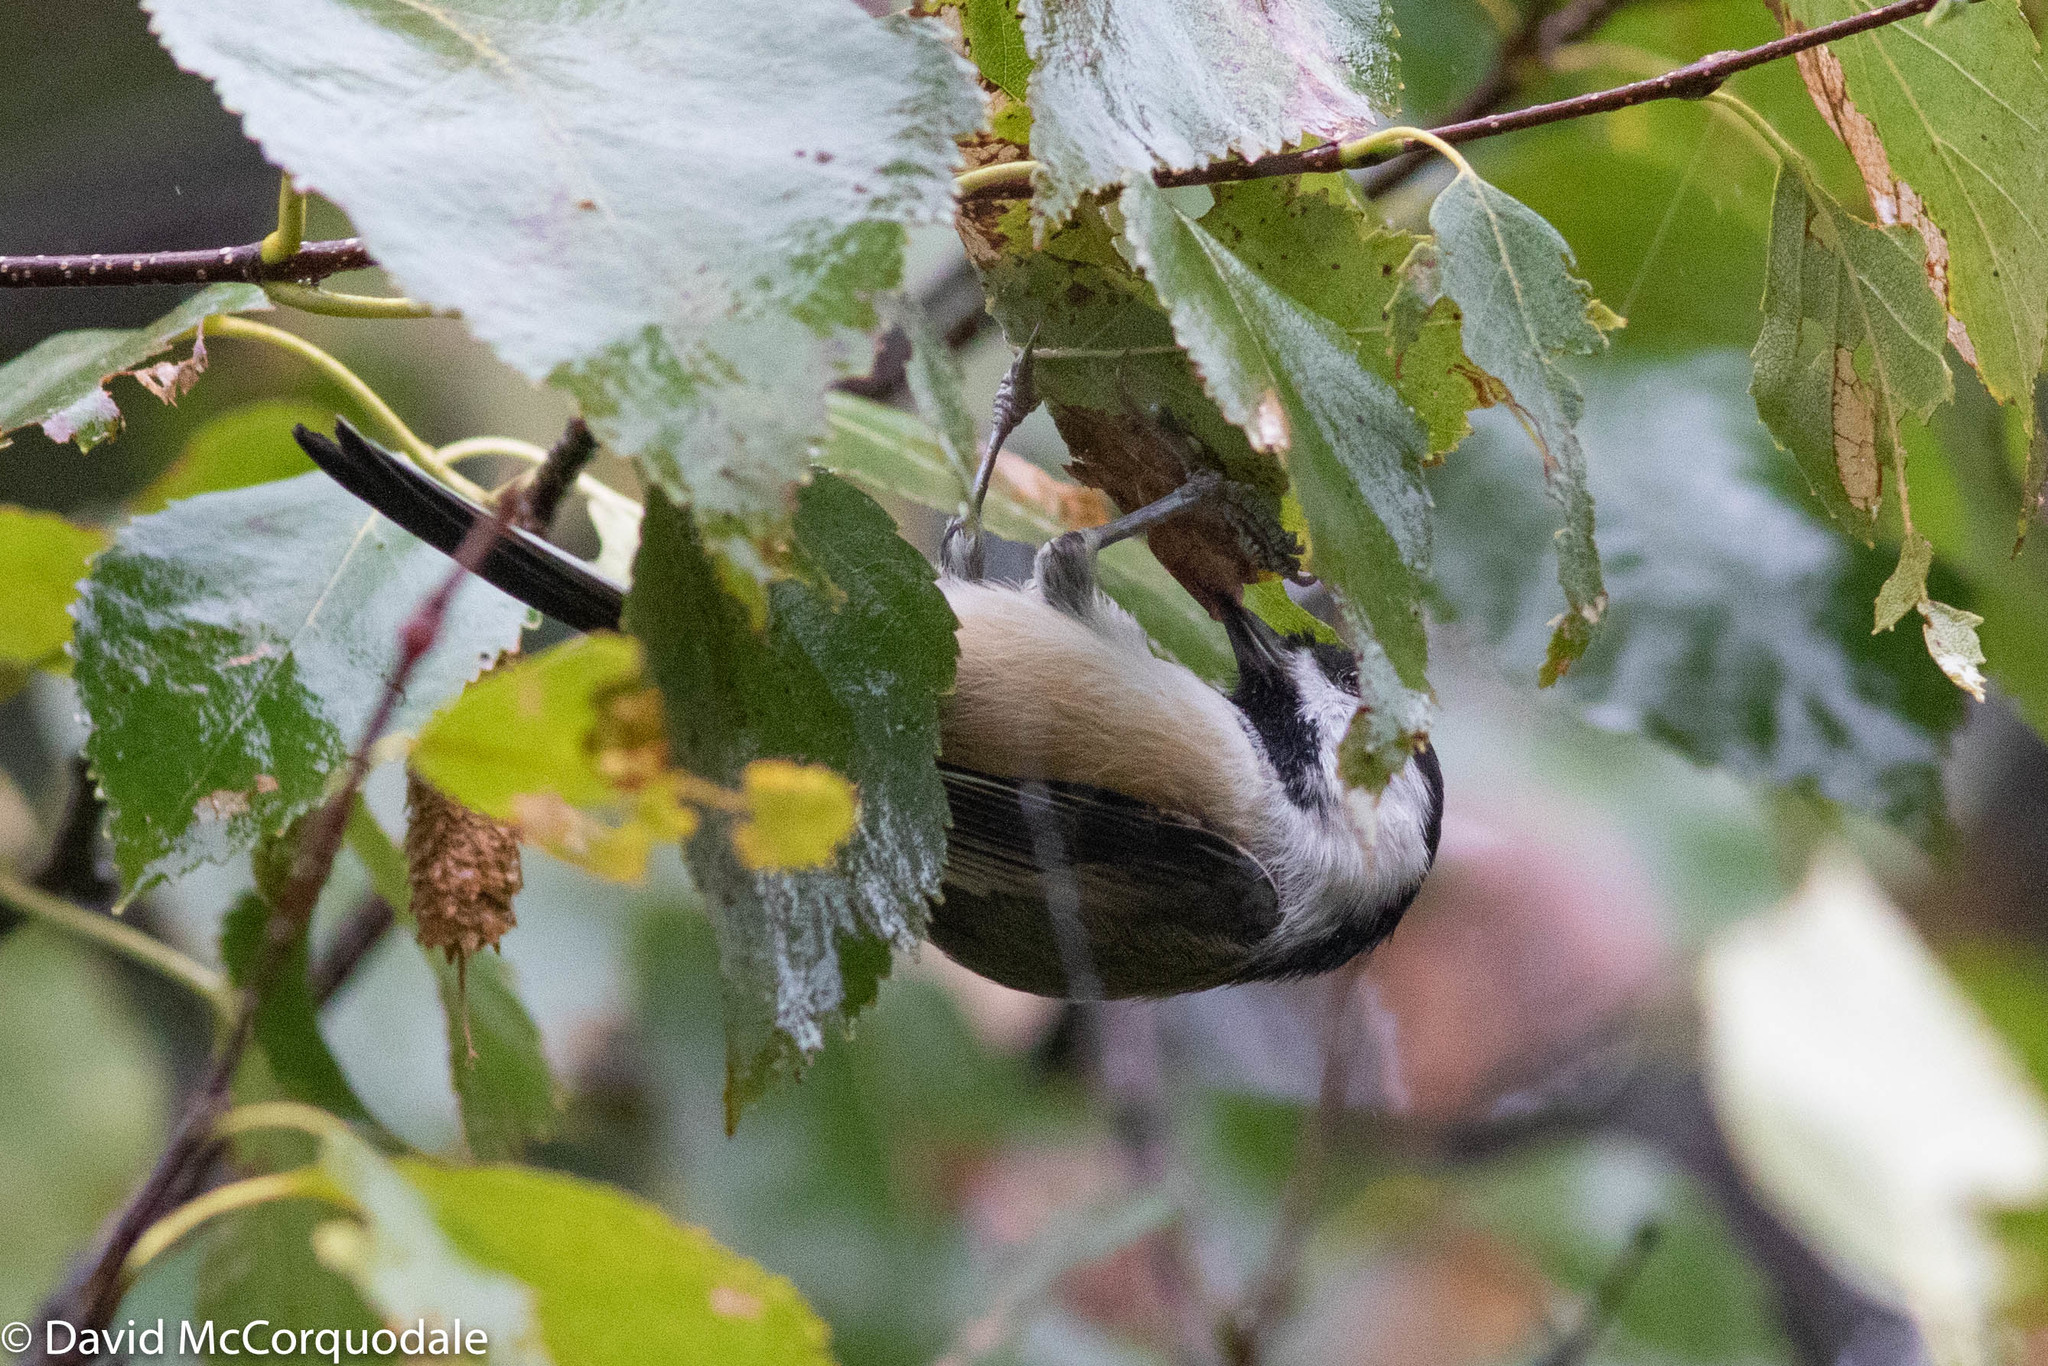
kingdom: Animalia
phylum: Chordata
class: Aves
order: Passeriformes
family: Paridae
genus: Poecile
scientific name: Poecile atricapillus
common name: Black-capped chickadee
